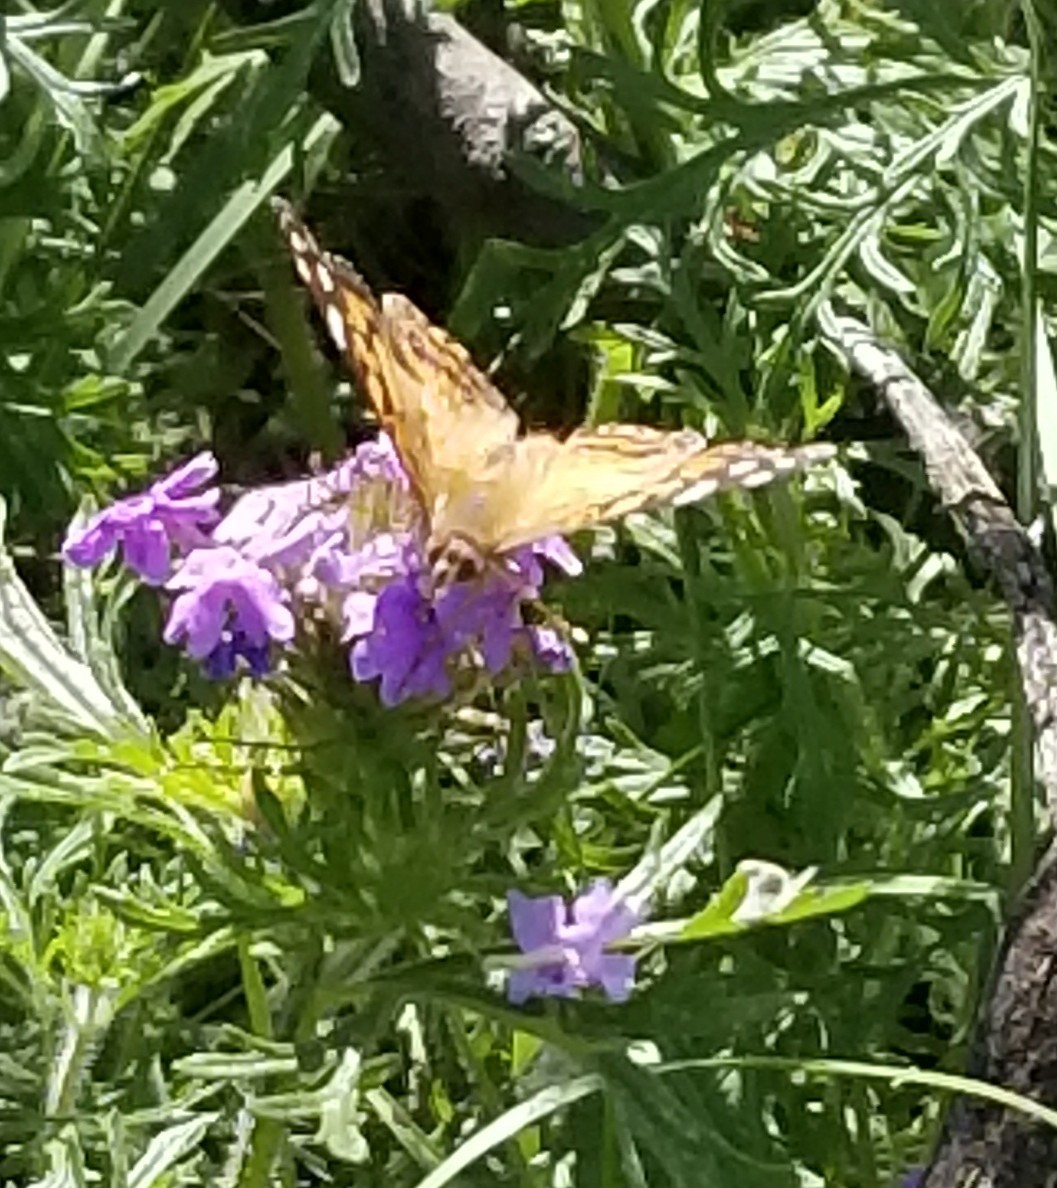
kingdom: Animalia
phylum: Arthropoda
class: Insecta
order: Lepidoptera
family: Nymphalidae
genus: Vanessa
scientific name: Vanessa virginiensis
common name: American lady
